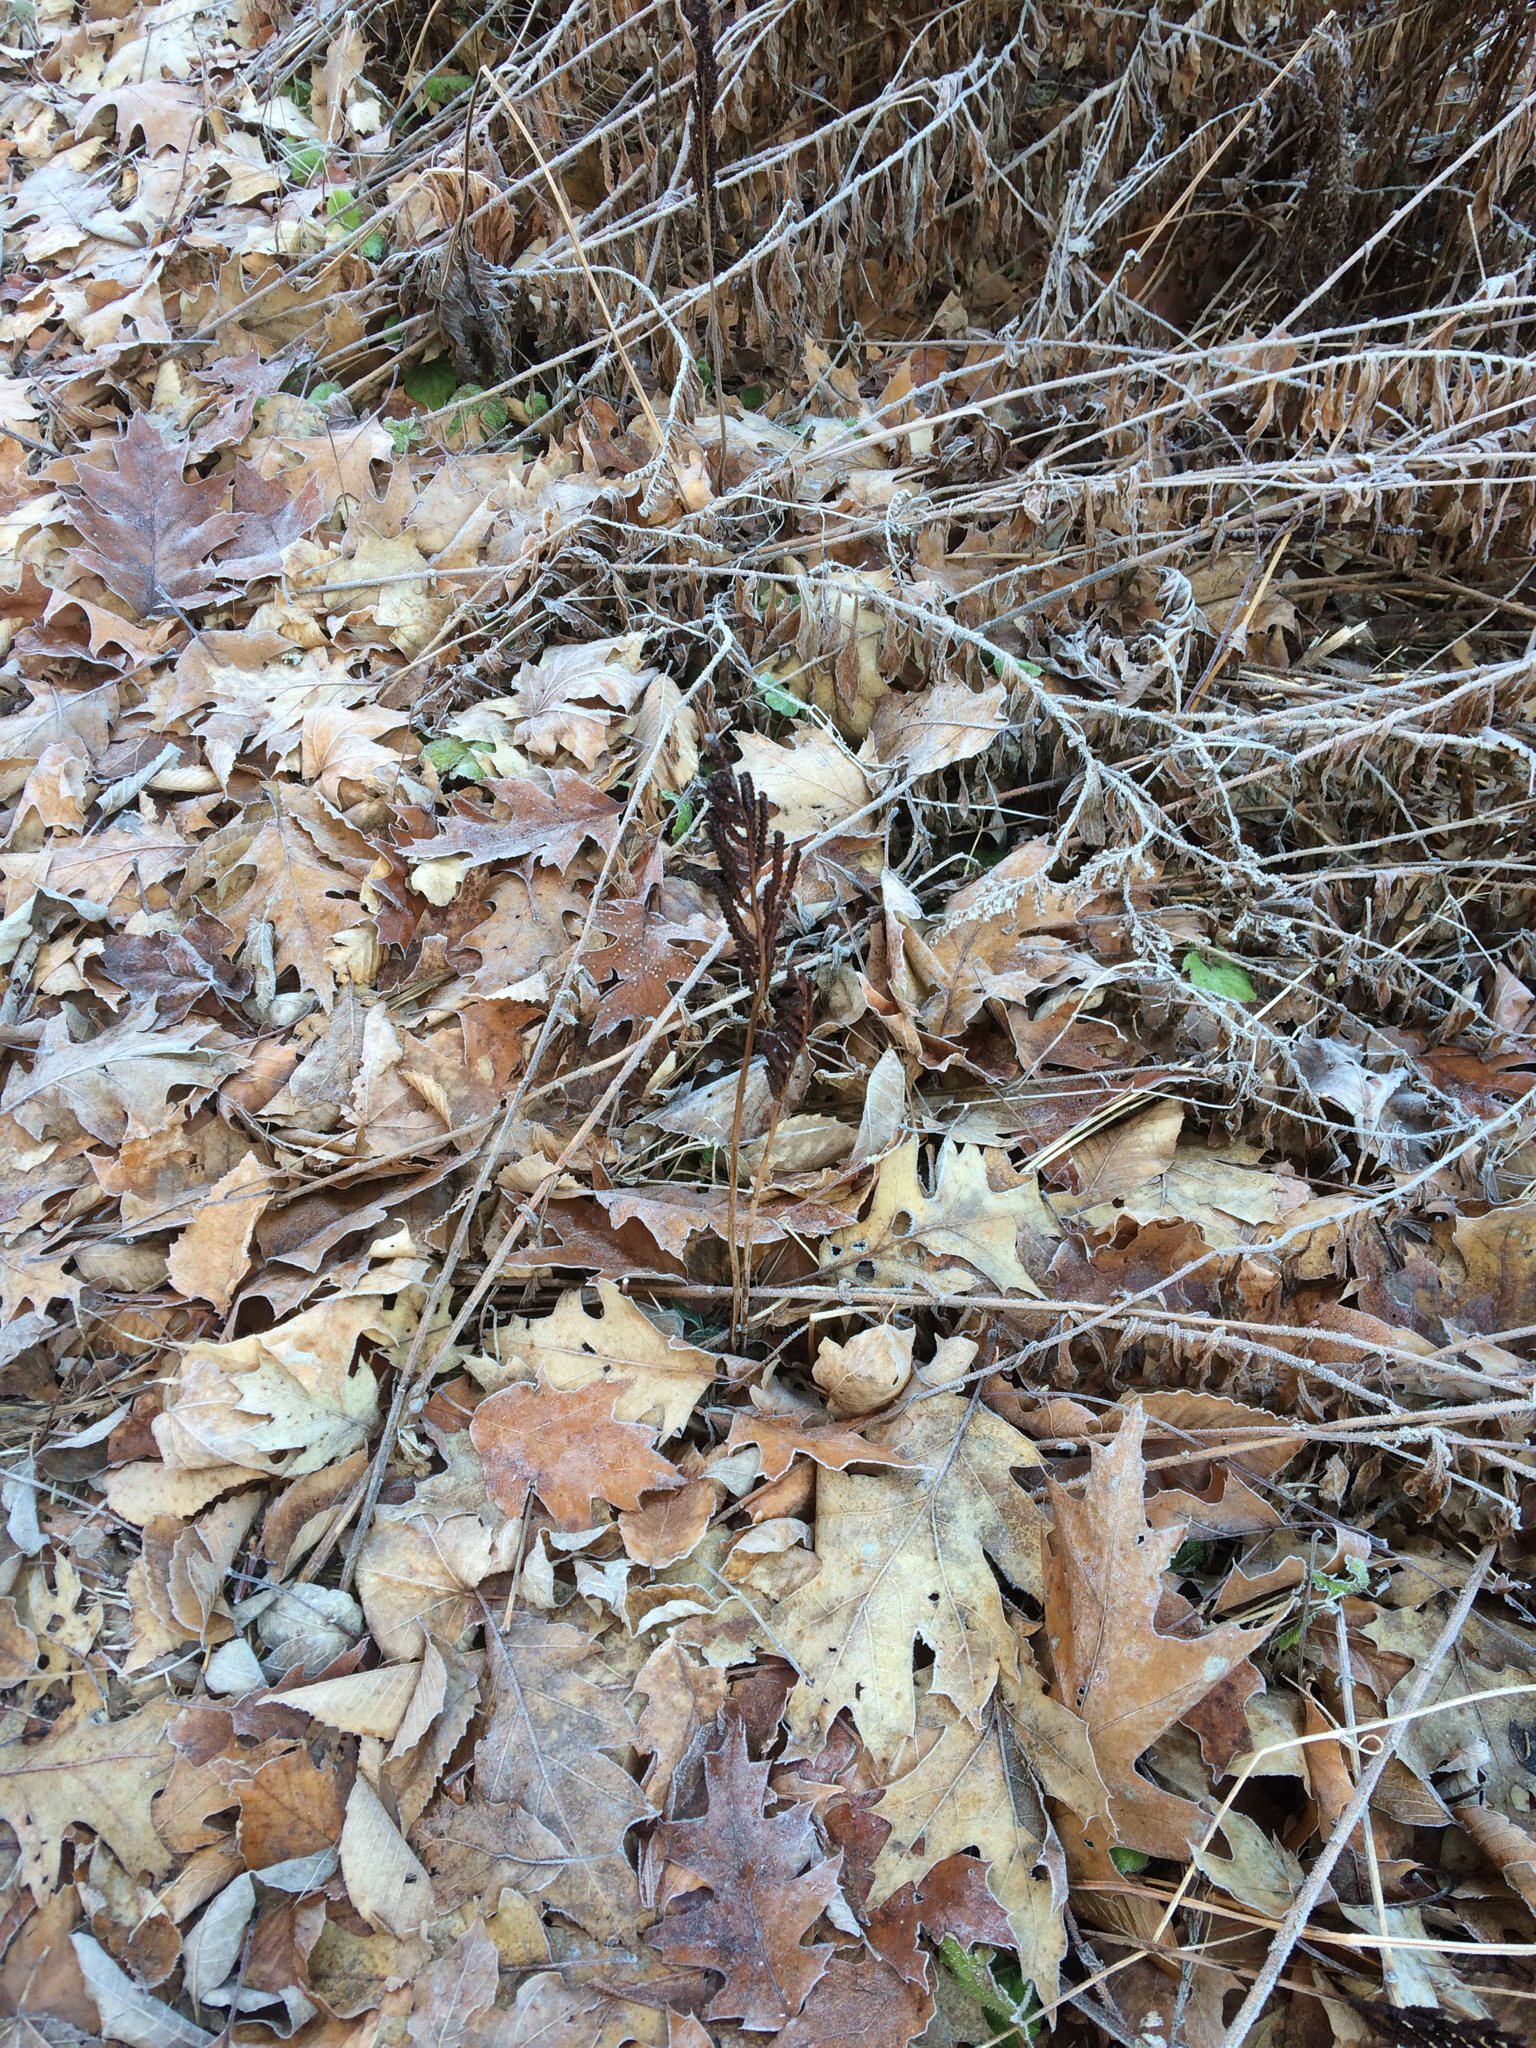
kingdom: Plantae
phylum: Tracheophyta
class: Polypodiopsida
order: Polypodiales
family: Onocleaceae
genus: Onoclea
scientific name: Onoclea sensibilis
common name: Sensitive fern
